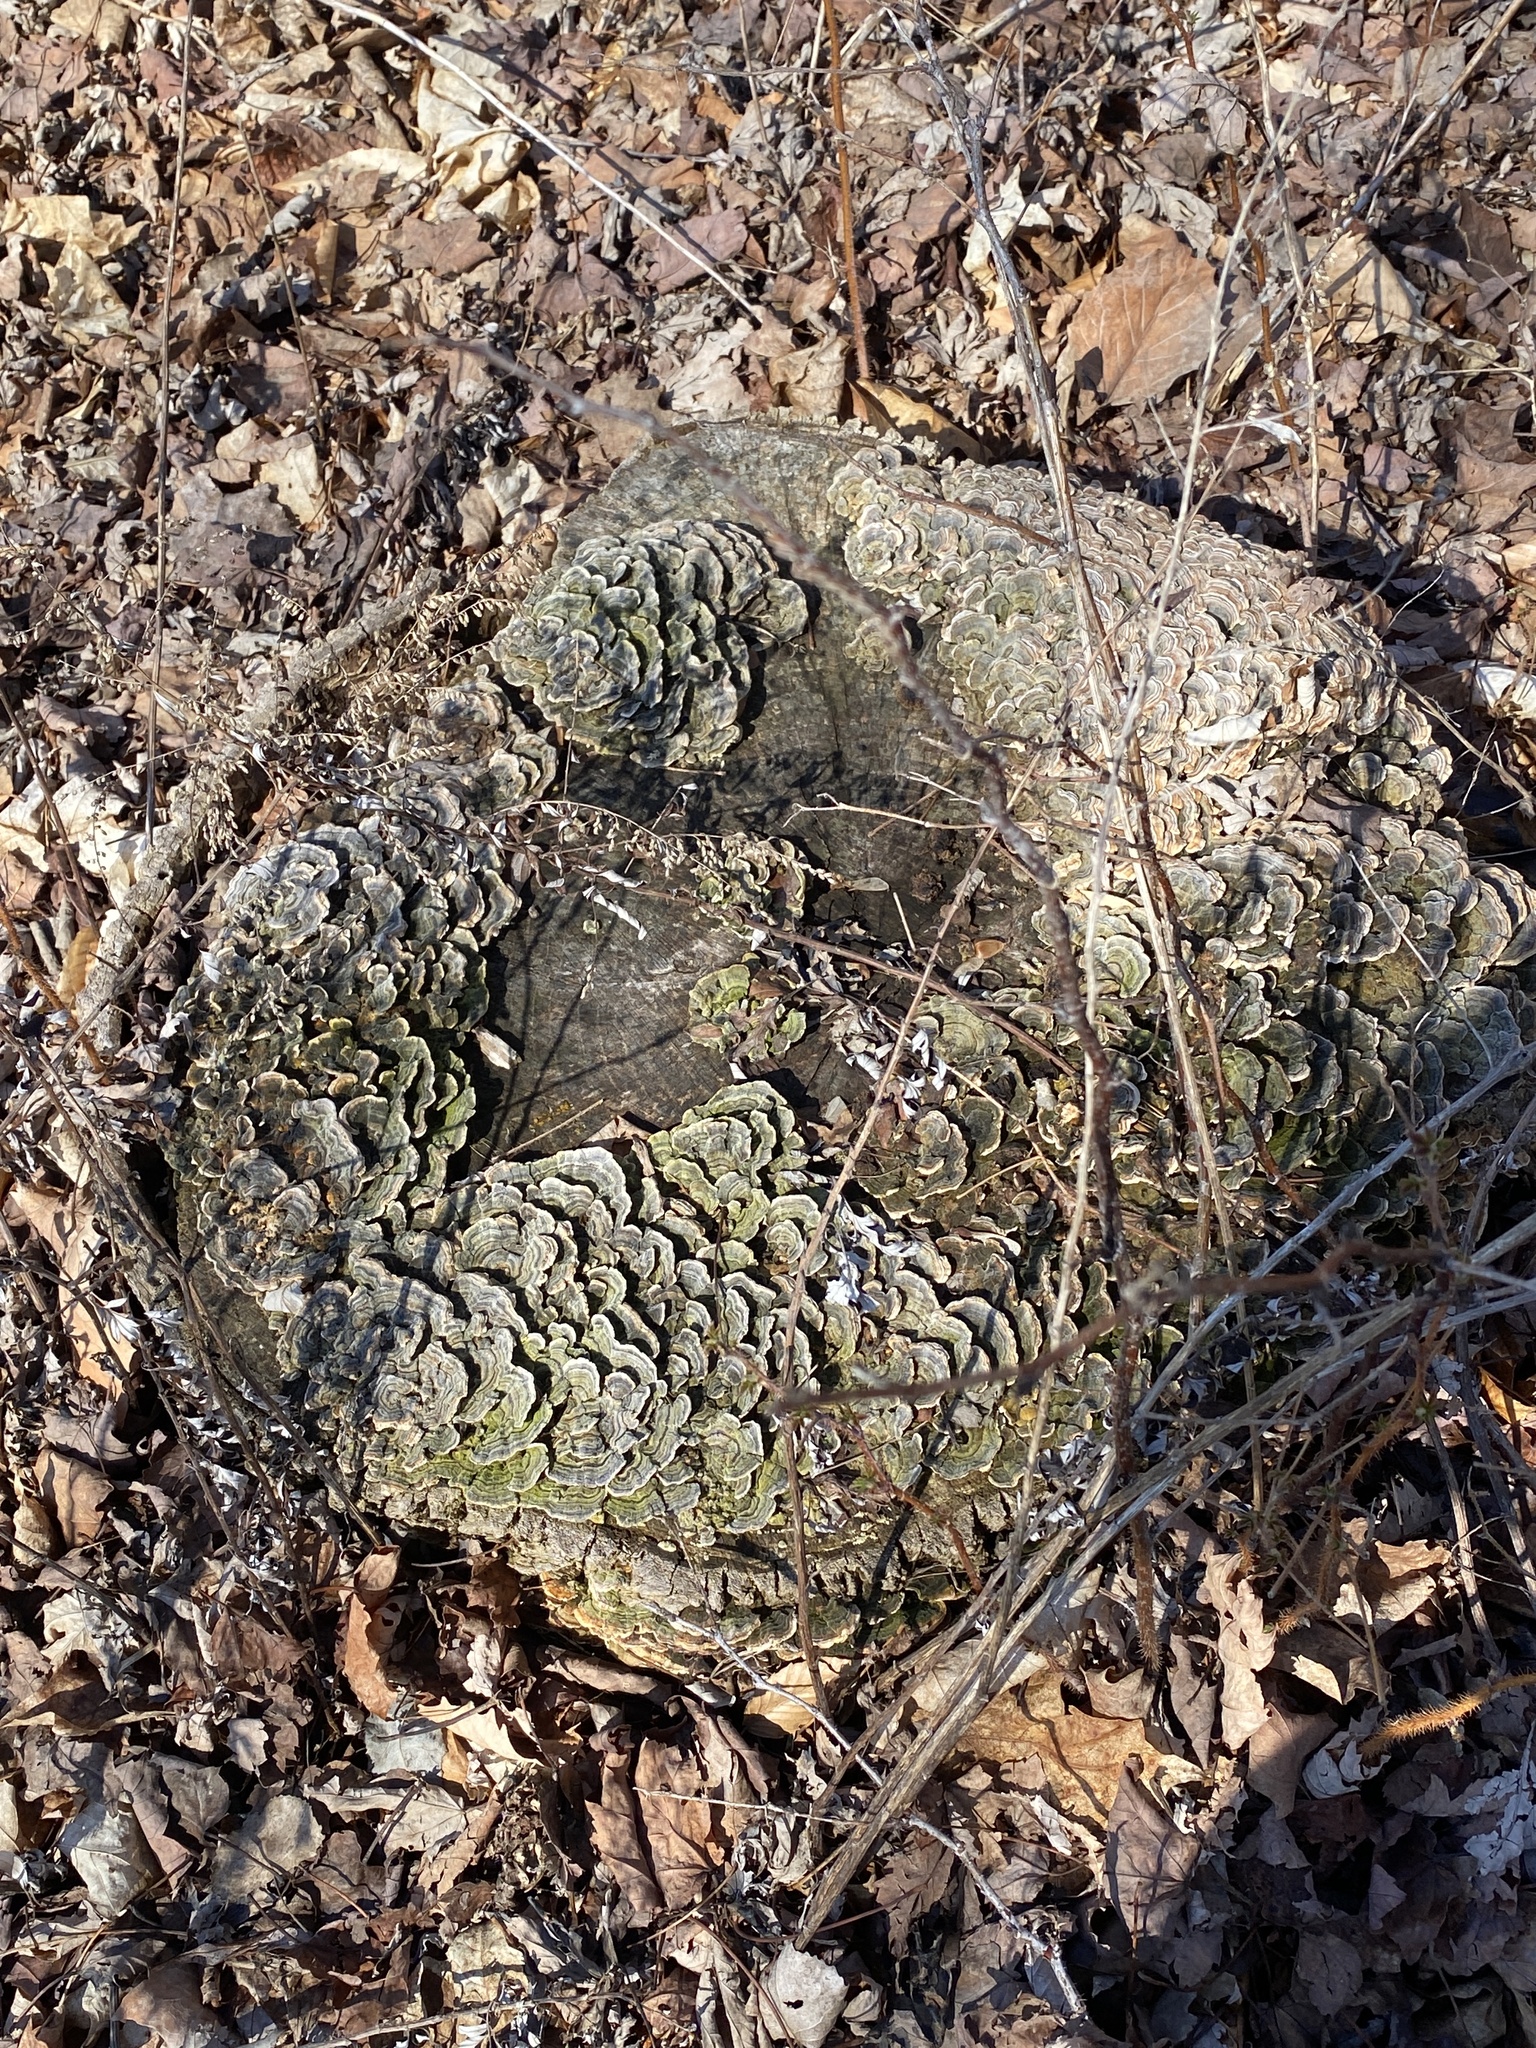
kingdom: Fungi
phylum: Basidiomycota
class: Agaricomycetes
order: Polyporales
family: Polyporaceae
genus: Trametes
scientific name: Trametes versicolor
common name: Turkeytail
